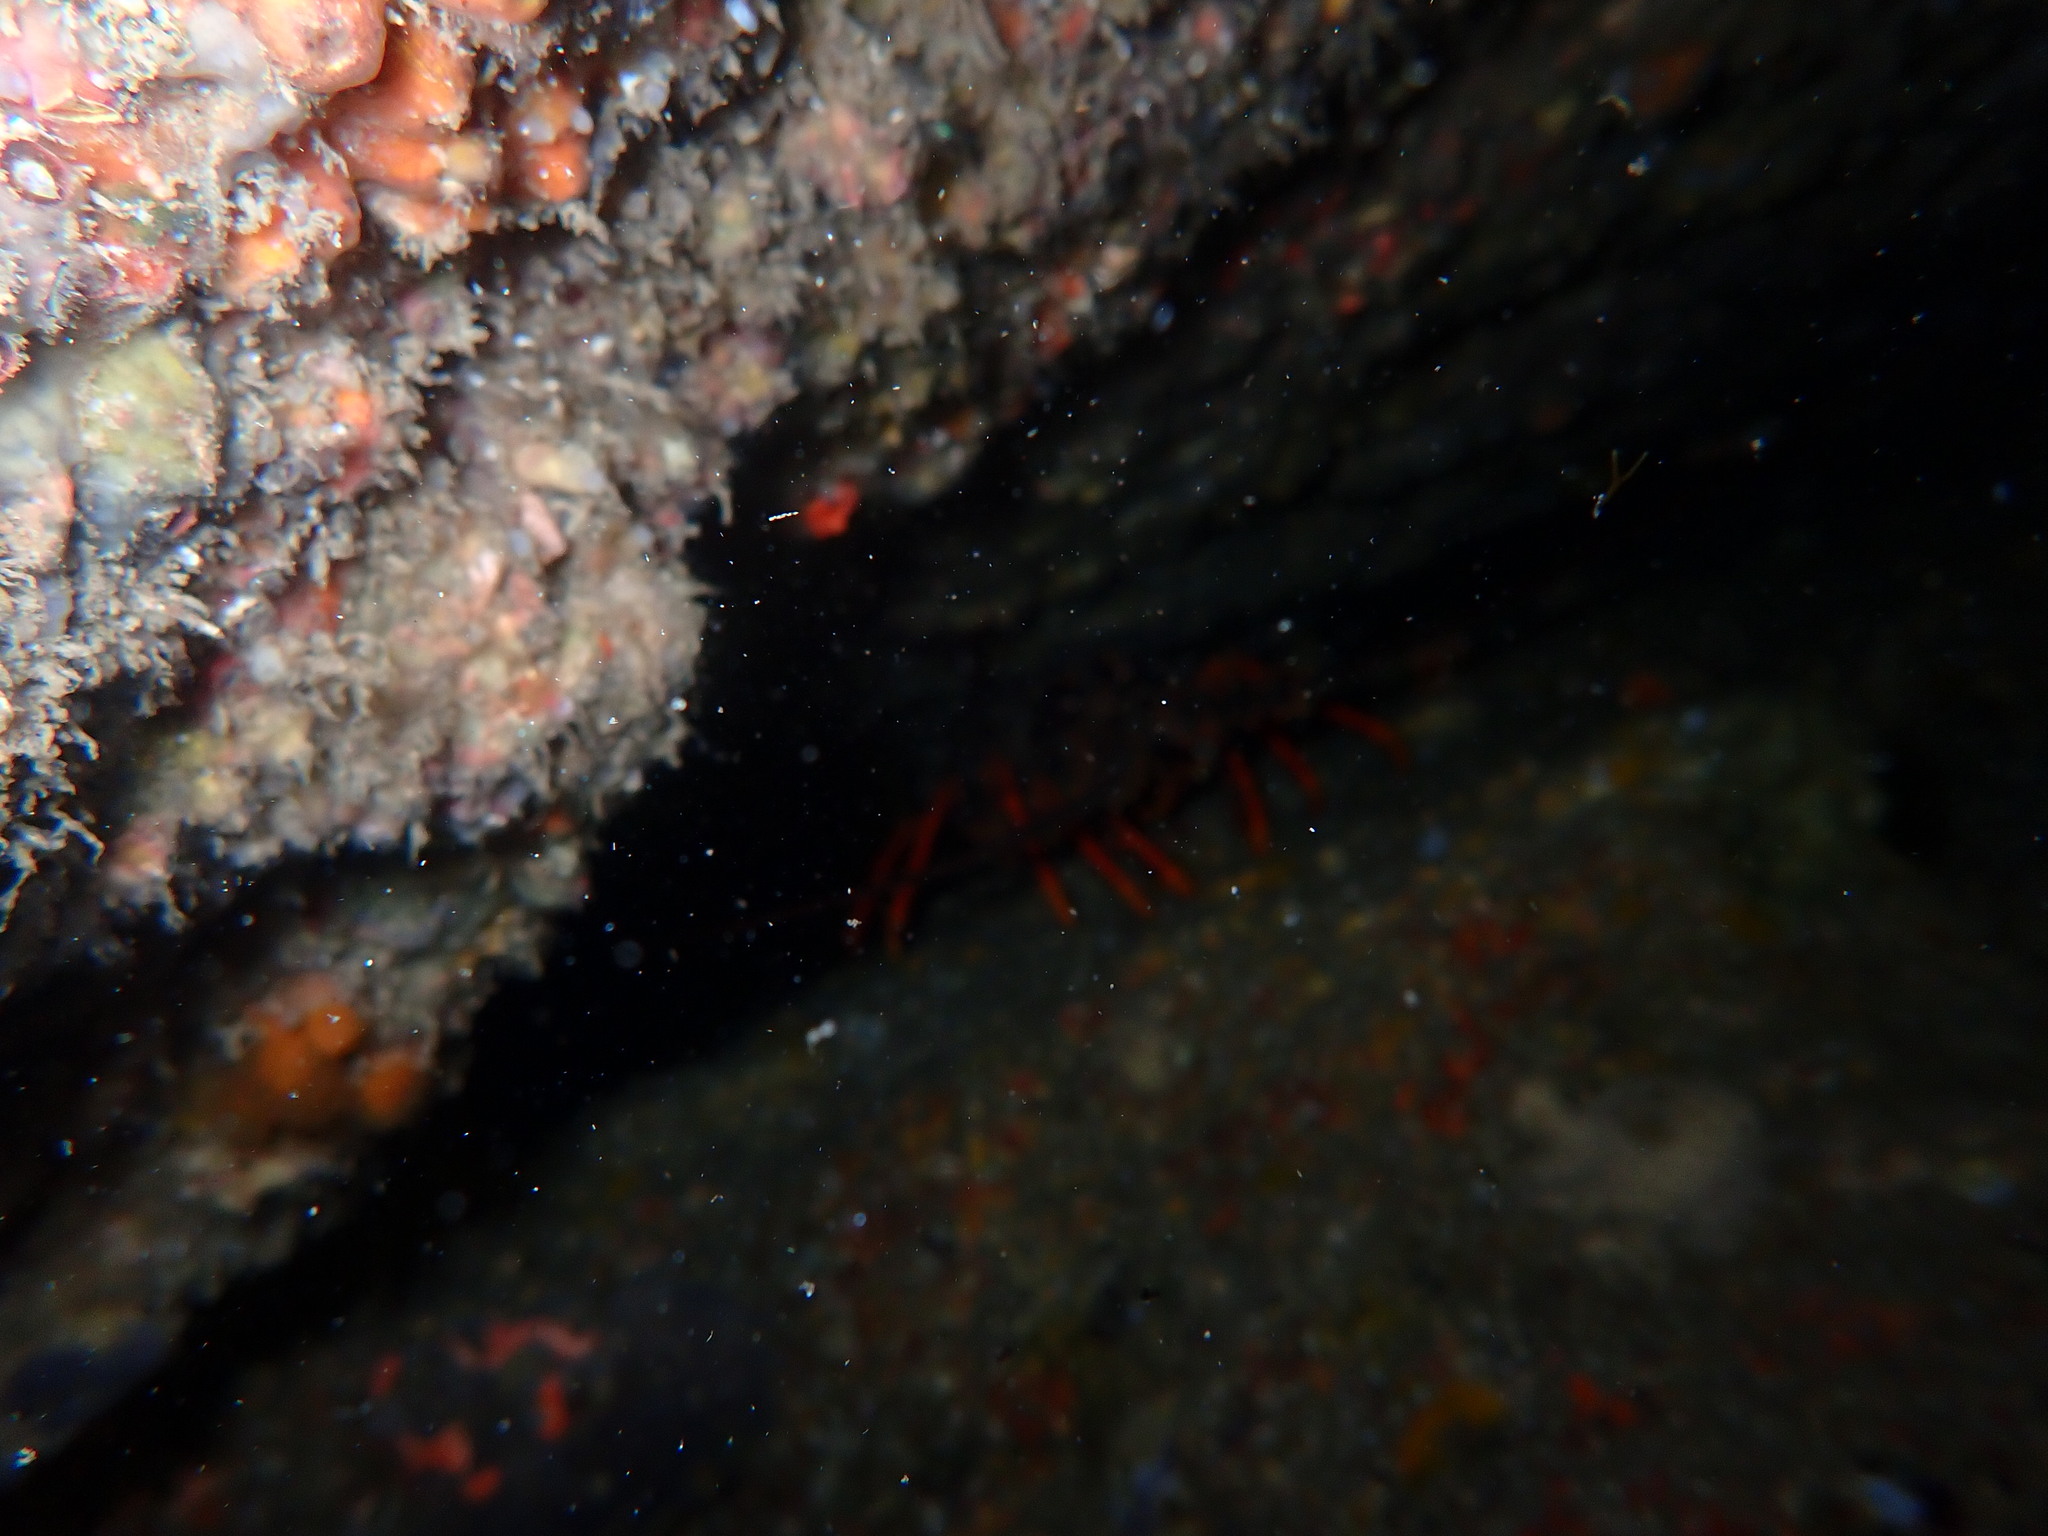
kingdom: Animalia
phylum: Arthropoda
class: Malacostraca
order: Decapoda
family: Palinuridae
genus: Jasus
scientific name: Jasus edwardsii
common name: Red rock lobster
